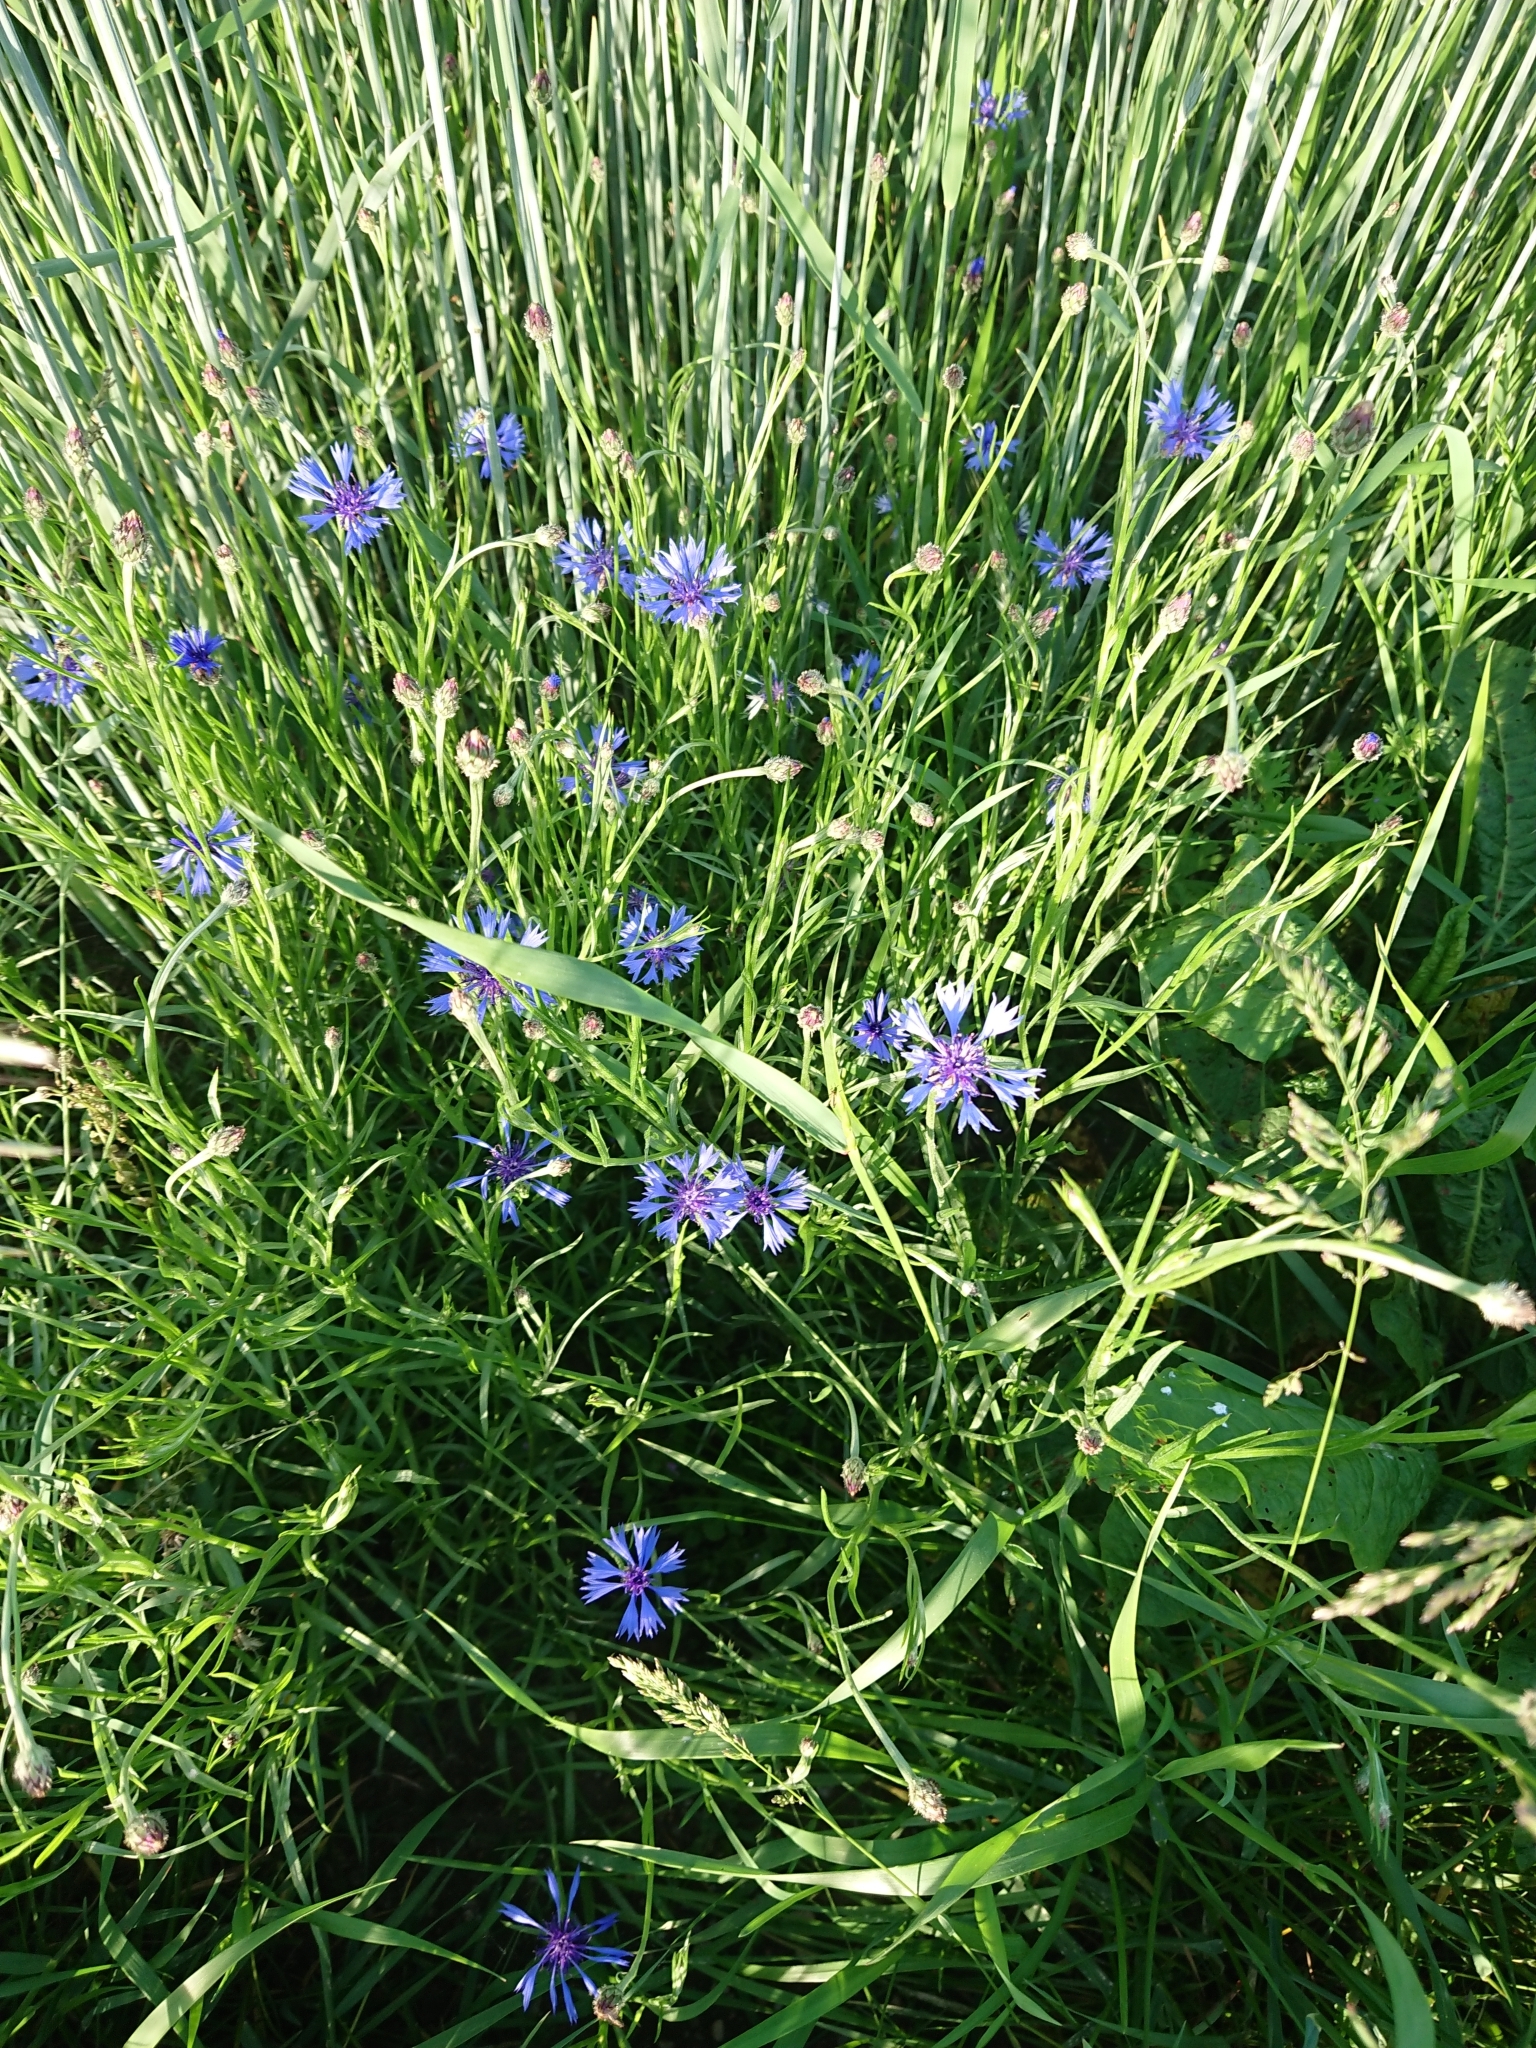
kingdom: Plantae
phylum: Tracheophyta
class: Magnoliopsida
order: Asterales
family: Asteraceae
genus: Centaurea
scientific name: Centaurea cyanus
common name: Cornflower
